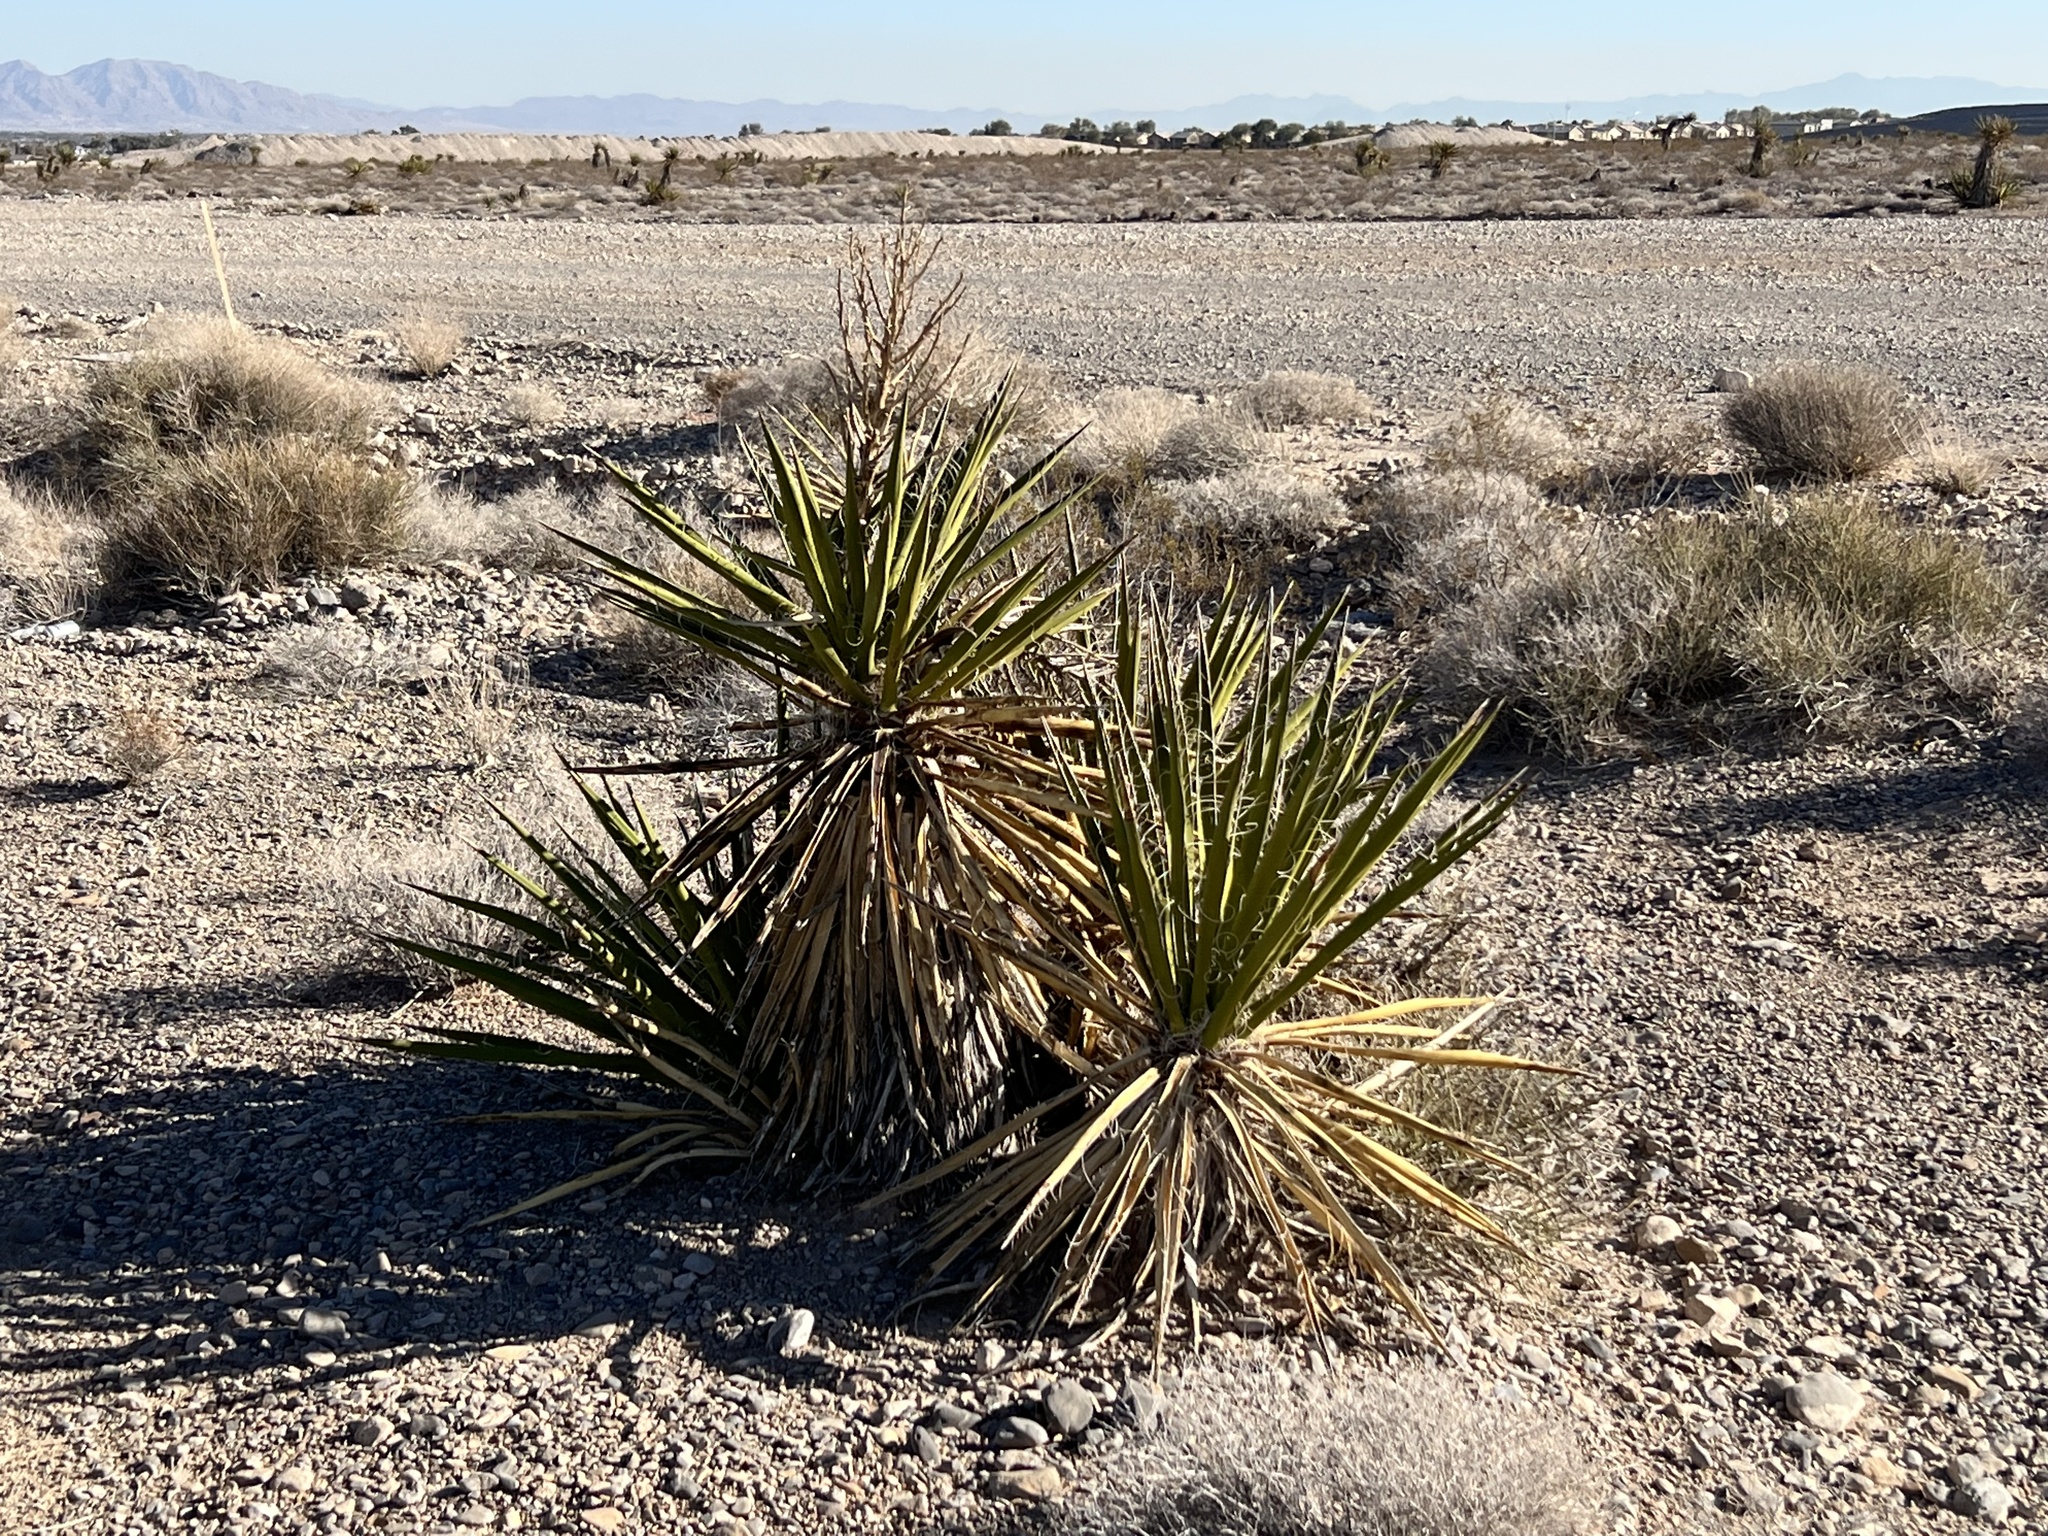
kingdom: Plantae
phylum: Tracheophyta
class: Liliopsida
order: Asparagales
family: Asparagaceae
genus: Yucca
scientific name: Yucca schidigera
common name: Mojave yucca
